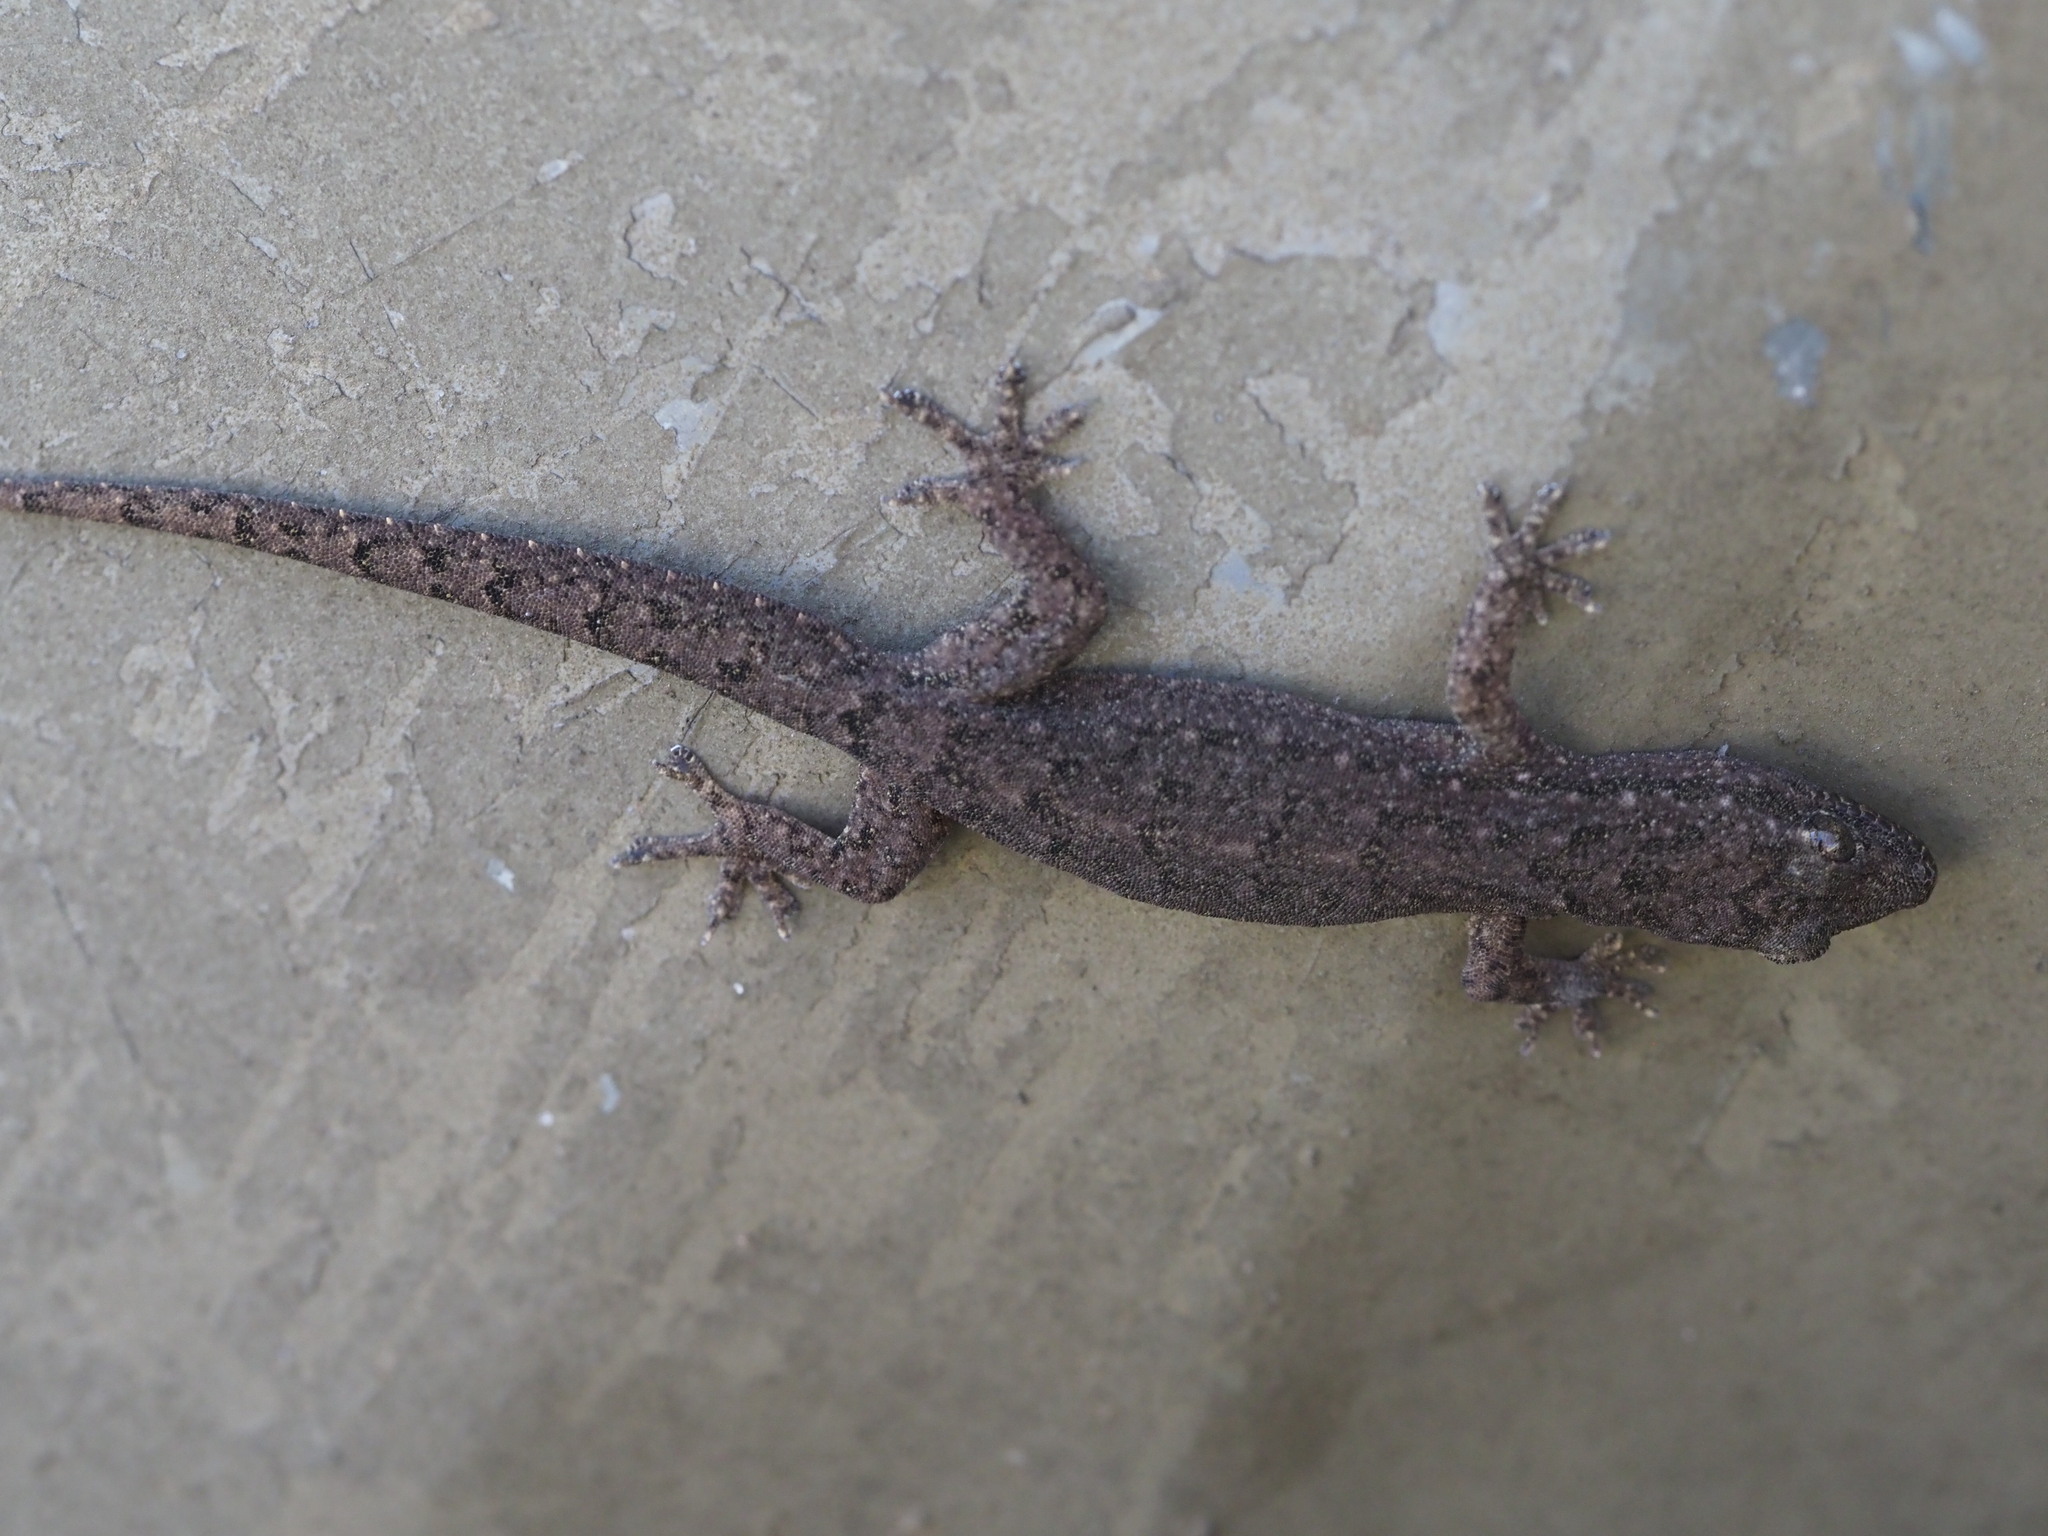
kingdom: Animalia
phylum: Chordata
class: Squamata
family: Gekkonidae
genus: Hemidactylus
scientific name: Hemidactylus bowringii
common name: Oriental leaf-toed gecko
